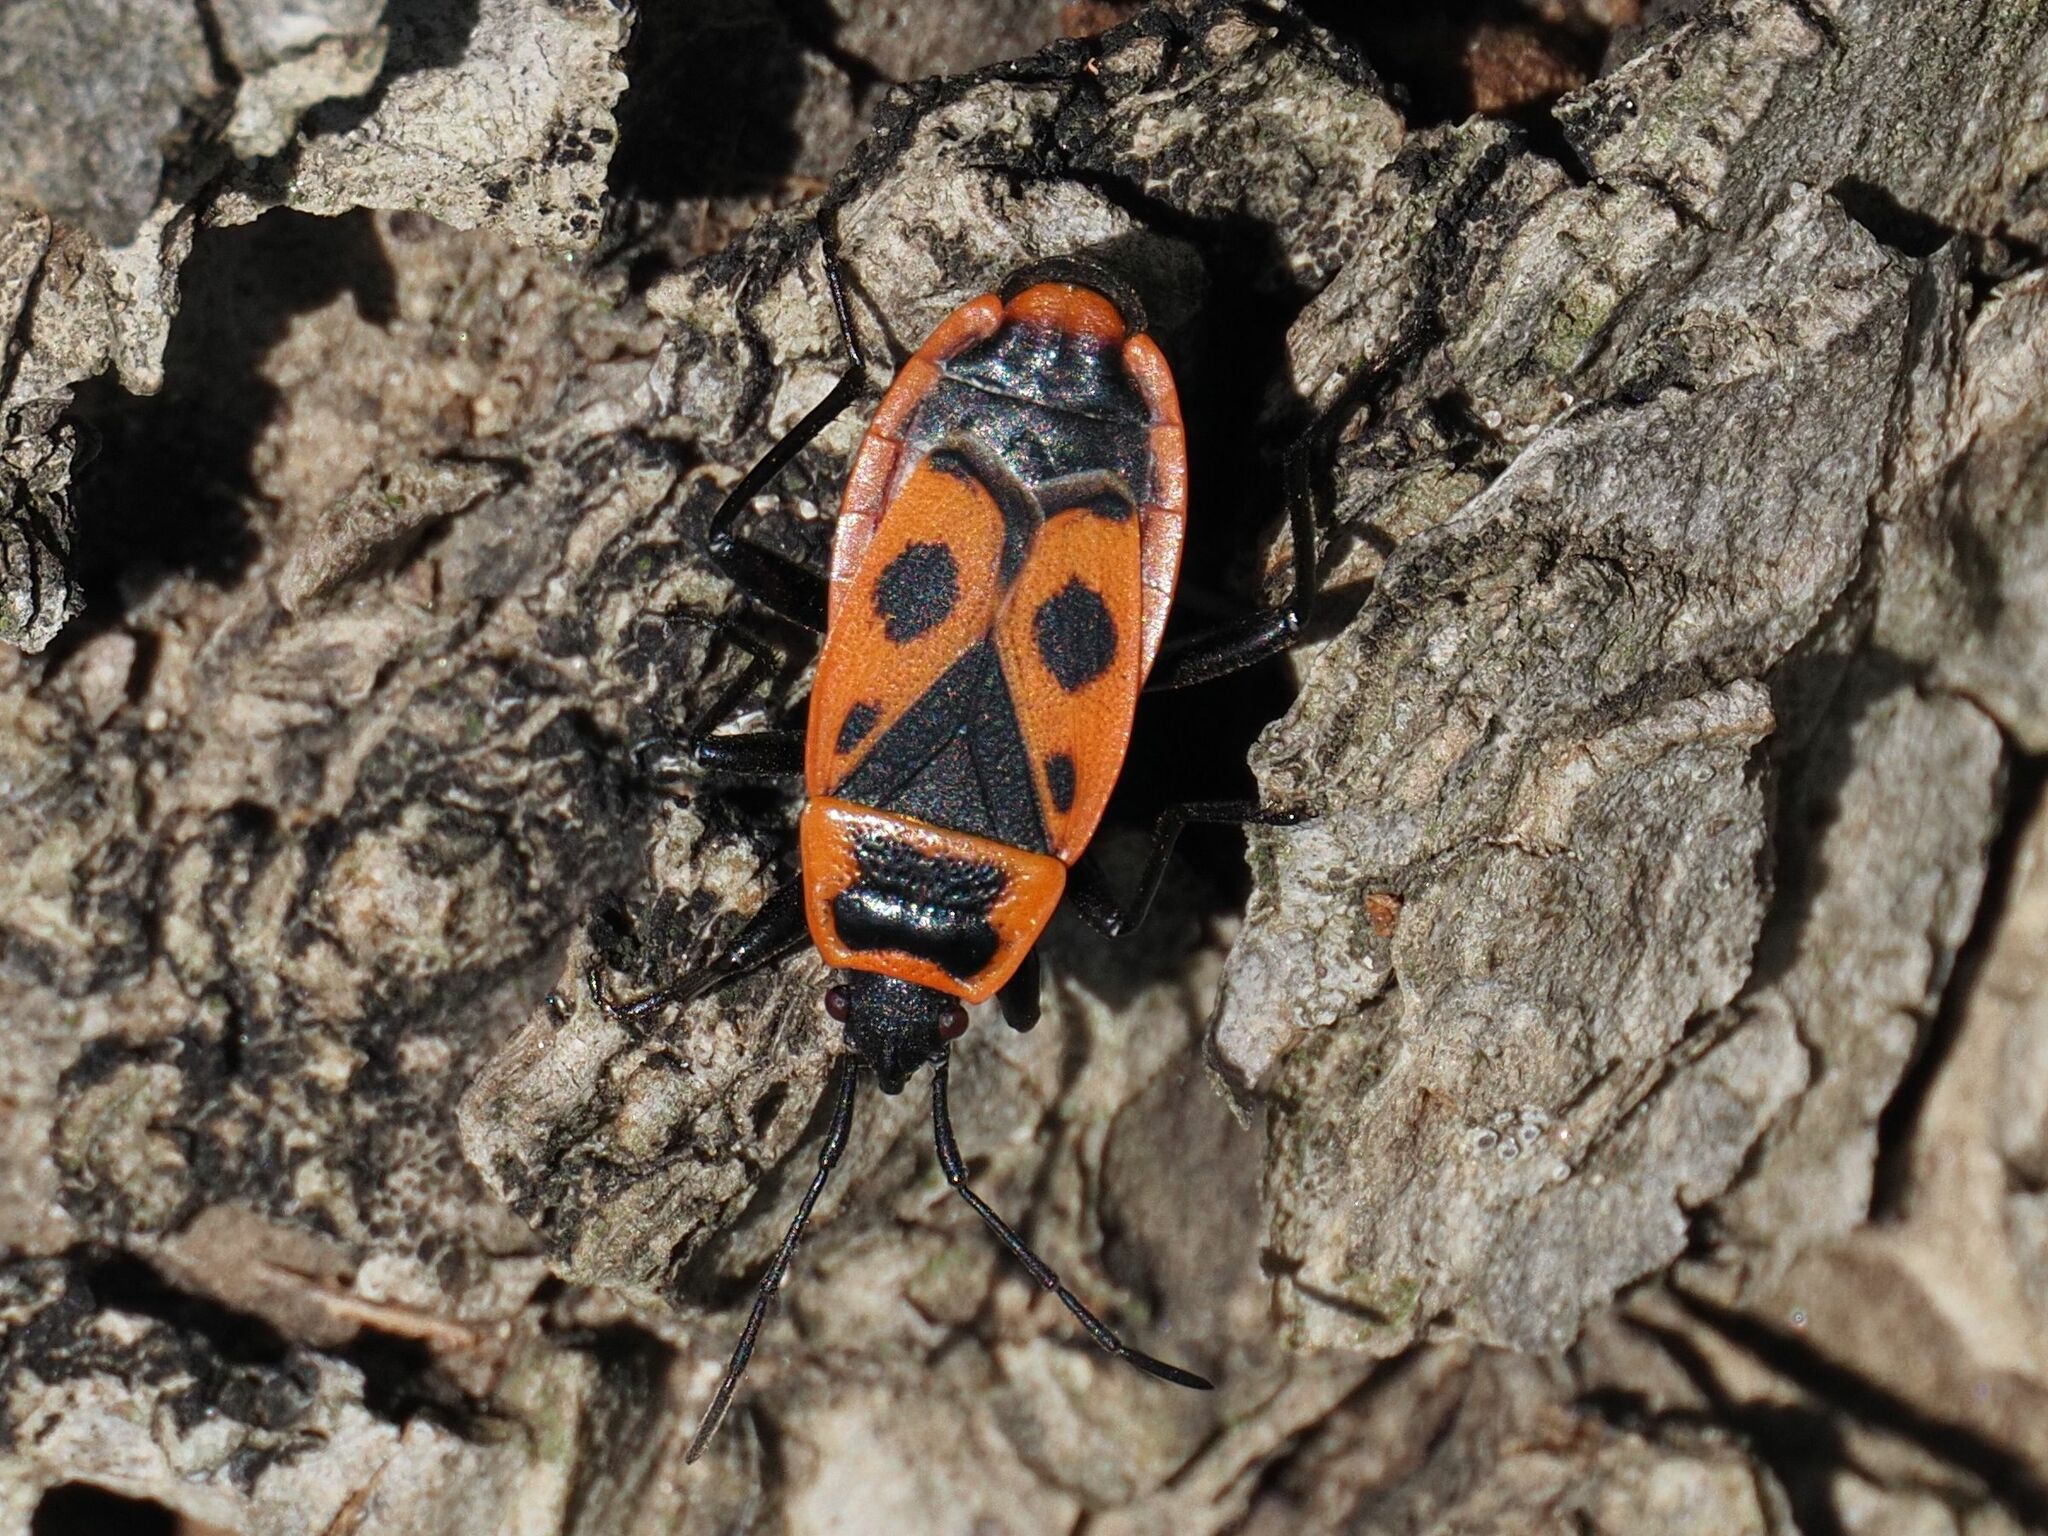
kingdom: Animalia
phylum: Arthropoda
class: Insecta
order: Hemiptera
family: Pyrrhocoridae
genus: Pyrrhocoris
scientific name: Pyrrhocoris apterus
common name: Firebug
